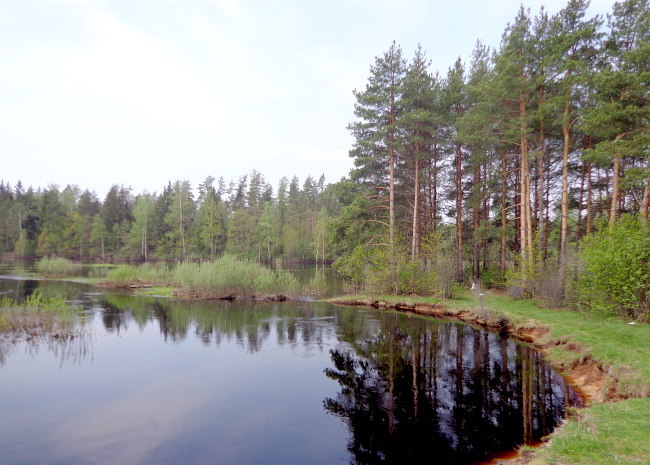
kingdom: Plantae
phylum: Tracheophyta
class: Pinopsida
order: Pinales
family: Pinaceae
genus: Pinus
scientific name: Pinus sylvestris
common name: Scots pine
